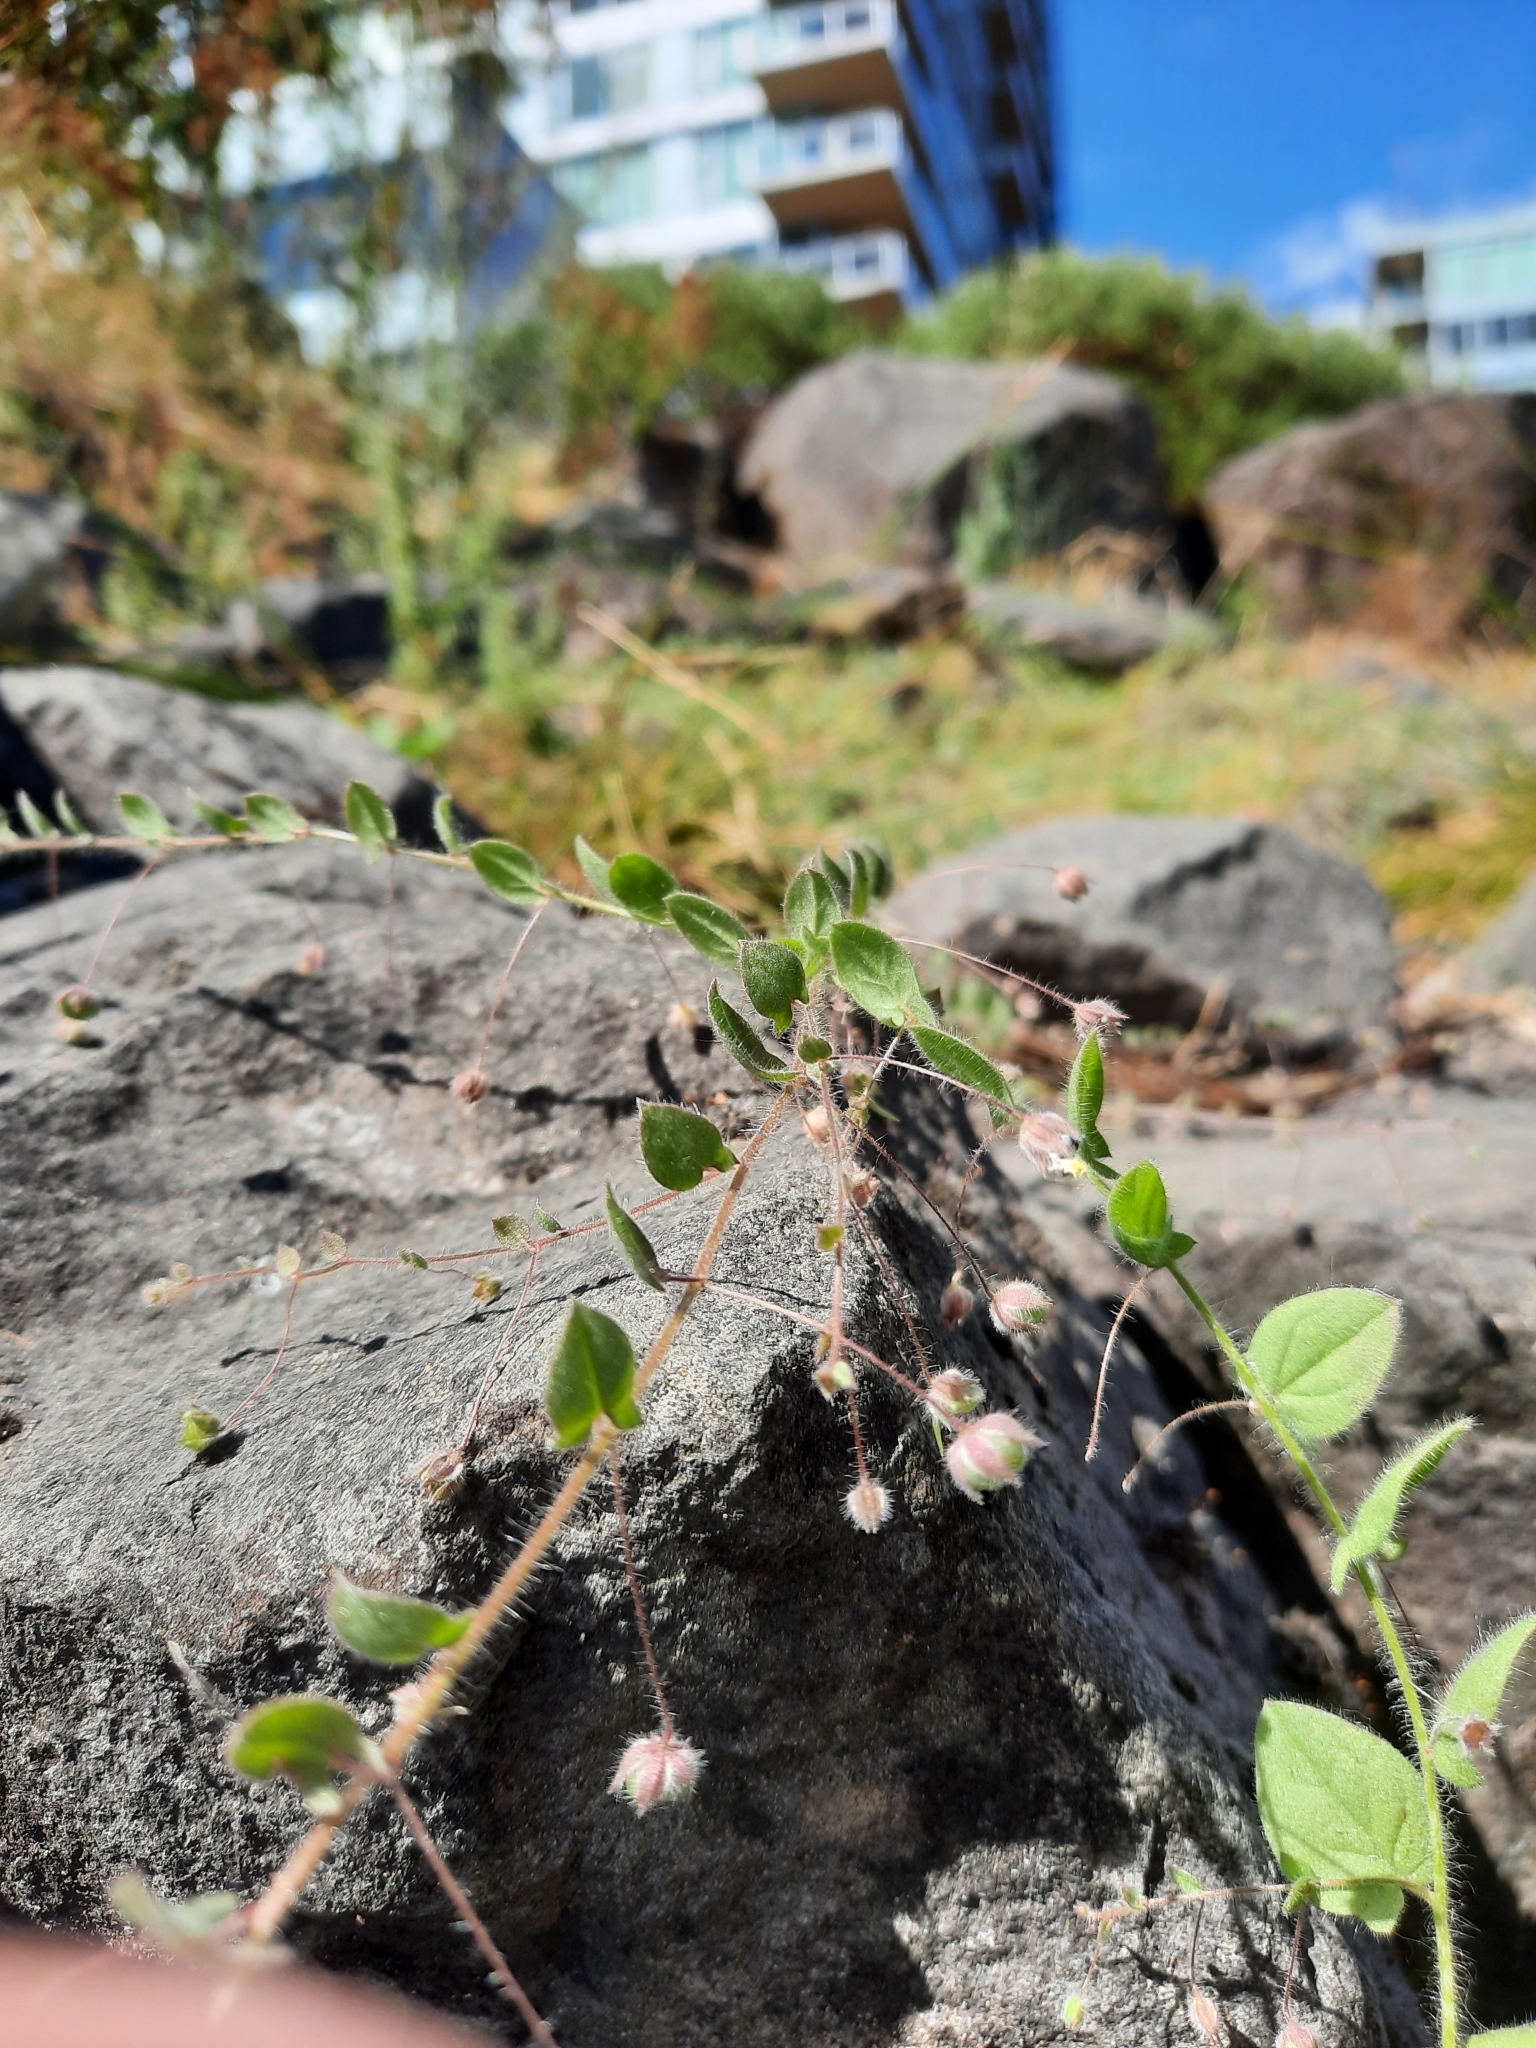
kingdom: Plantae
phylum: Tracheophyta
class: Magnoliopsida
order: Lamiales
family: Plantaginaceae
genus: Kickxia
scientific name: Kickxia elatine
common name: Sharp-leaved fluellen
